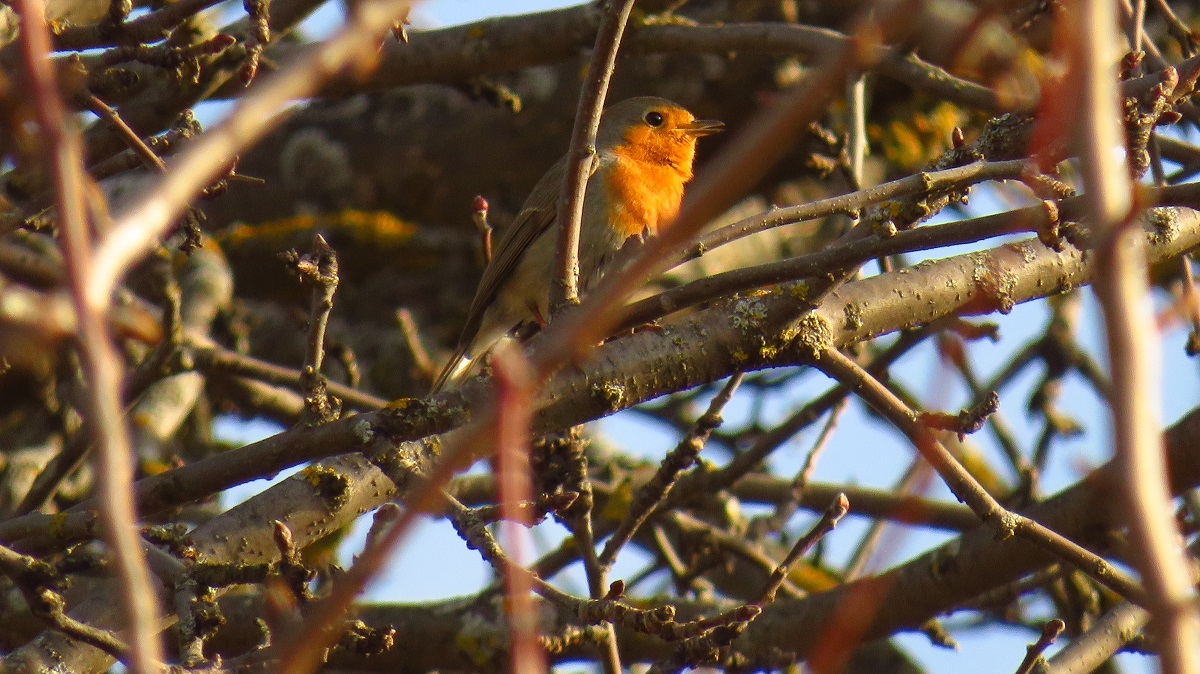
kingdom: Animalia
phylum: Chordata
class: Aves
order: Passeriformes
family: Muscicapidae
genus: Erithacus
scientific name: Erithacus rubecula
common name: European robin
